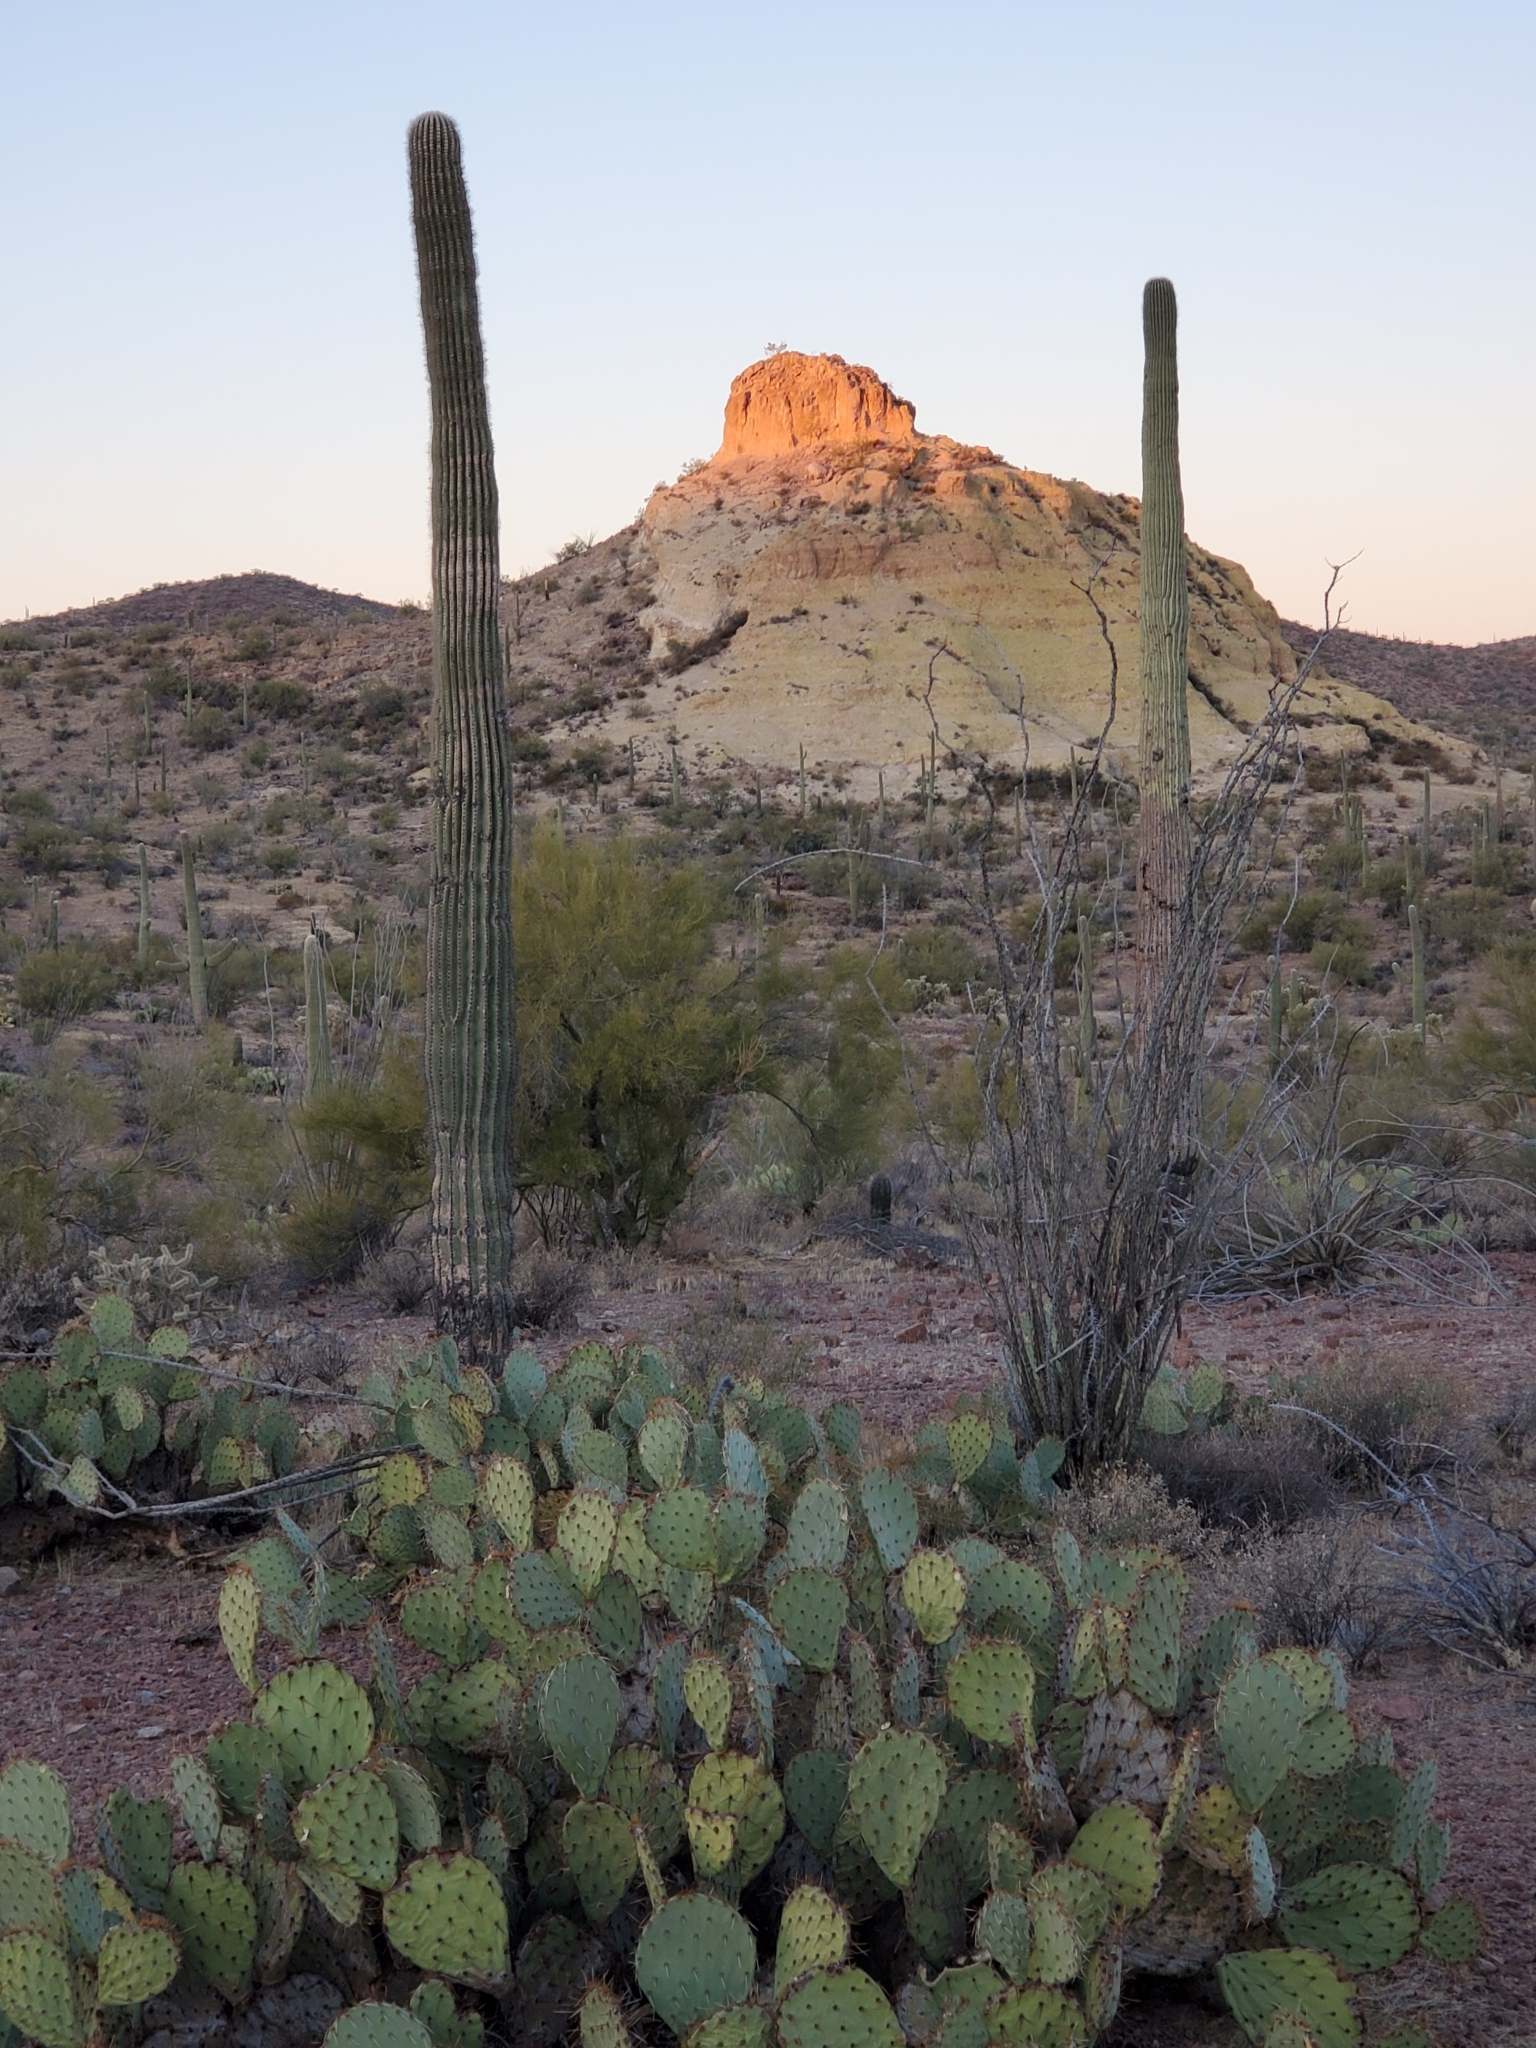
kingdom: Plantae
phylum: Tracheophyta
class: Magnoliopsida
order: Caryophyllales
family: Cactaceae
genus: Carnegiea
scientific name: Carnegiea gigantea
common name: Saguaro
